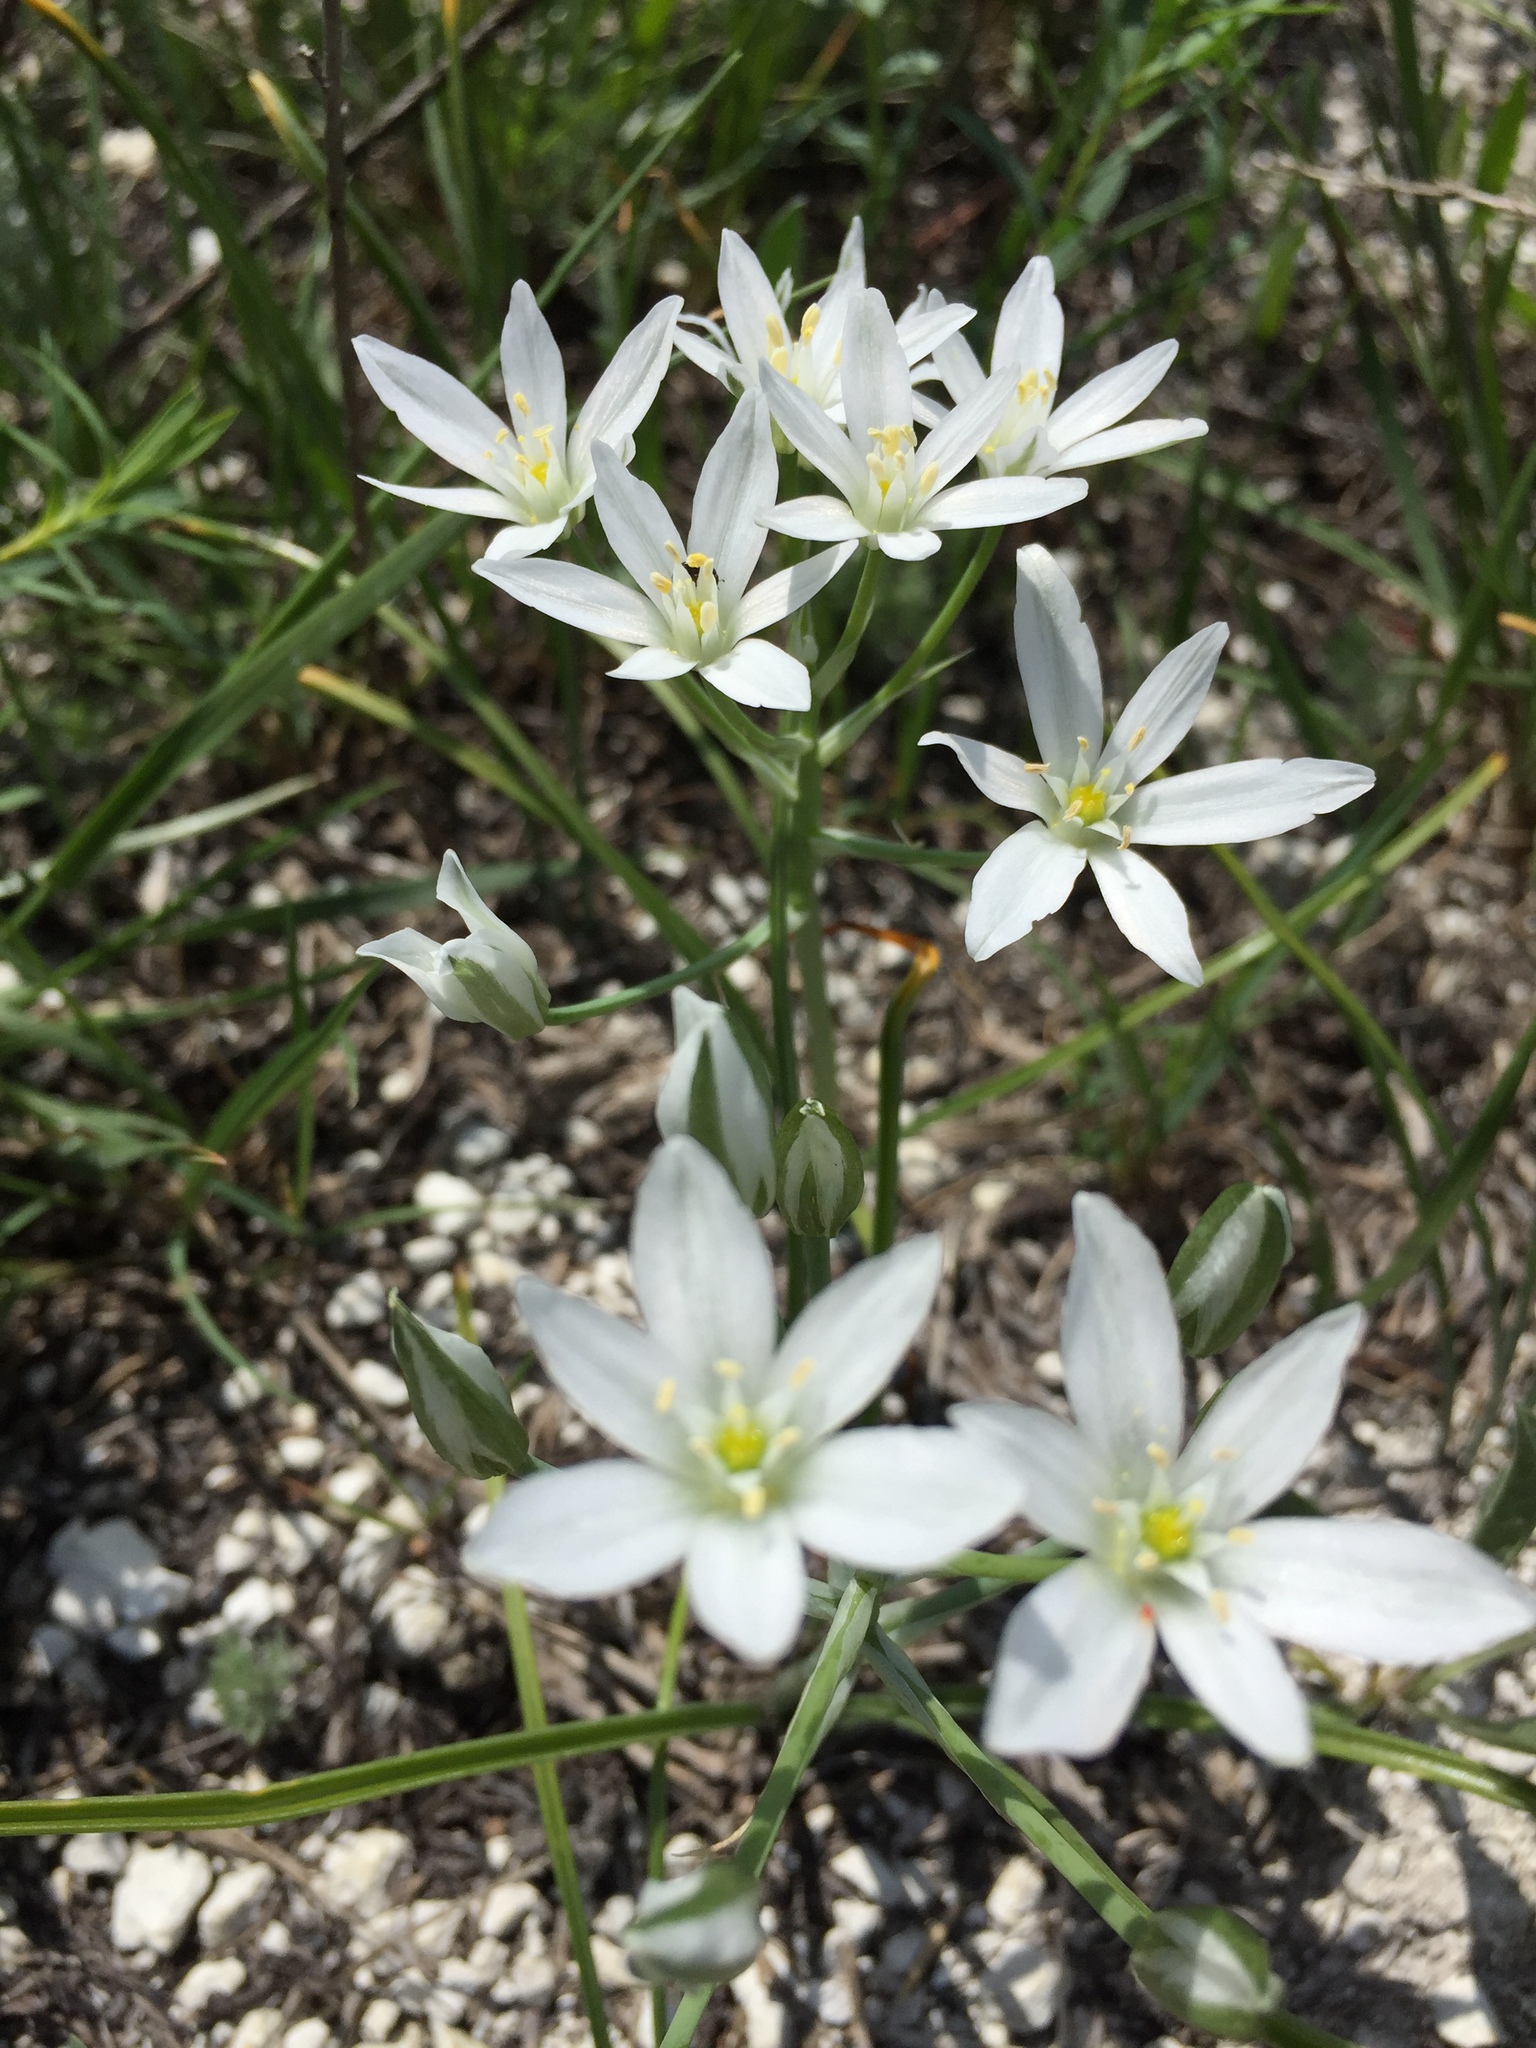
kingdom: Plantae
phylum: Tracheophyta
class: Liliopsida
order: Asparagales
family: Asparagaceae
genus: Ornithogalum
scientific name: Ornithogalum orthophyllum
